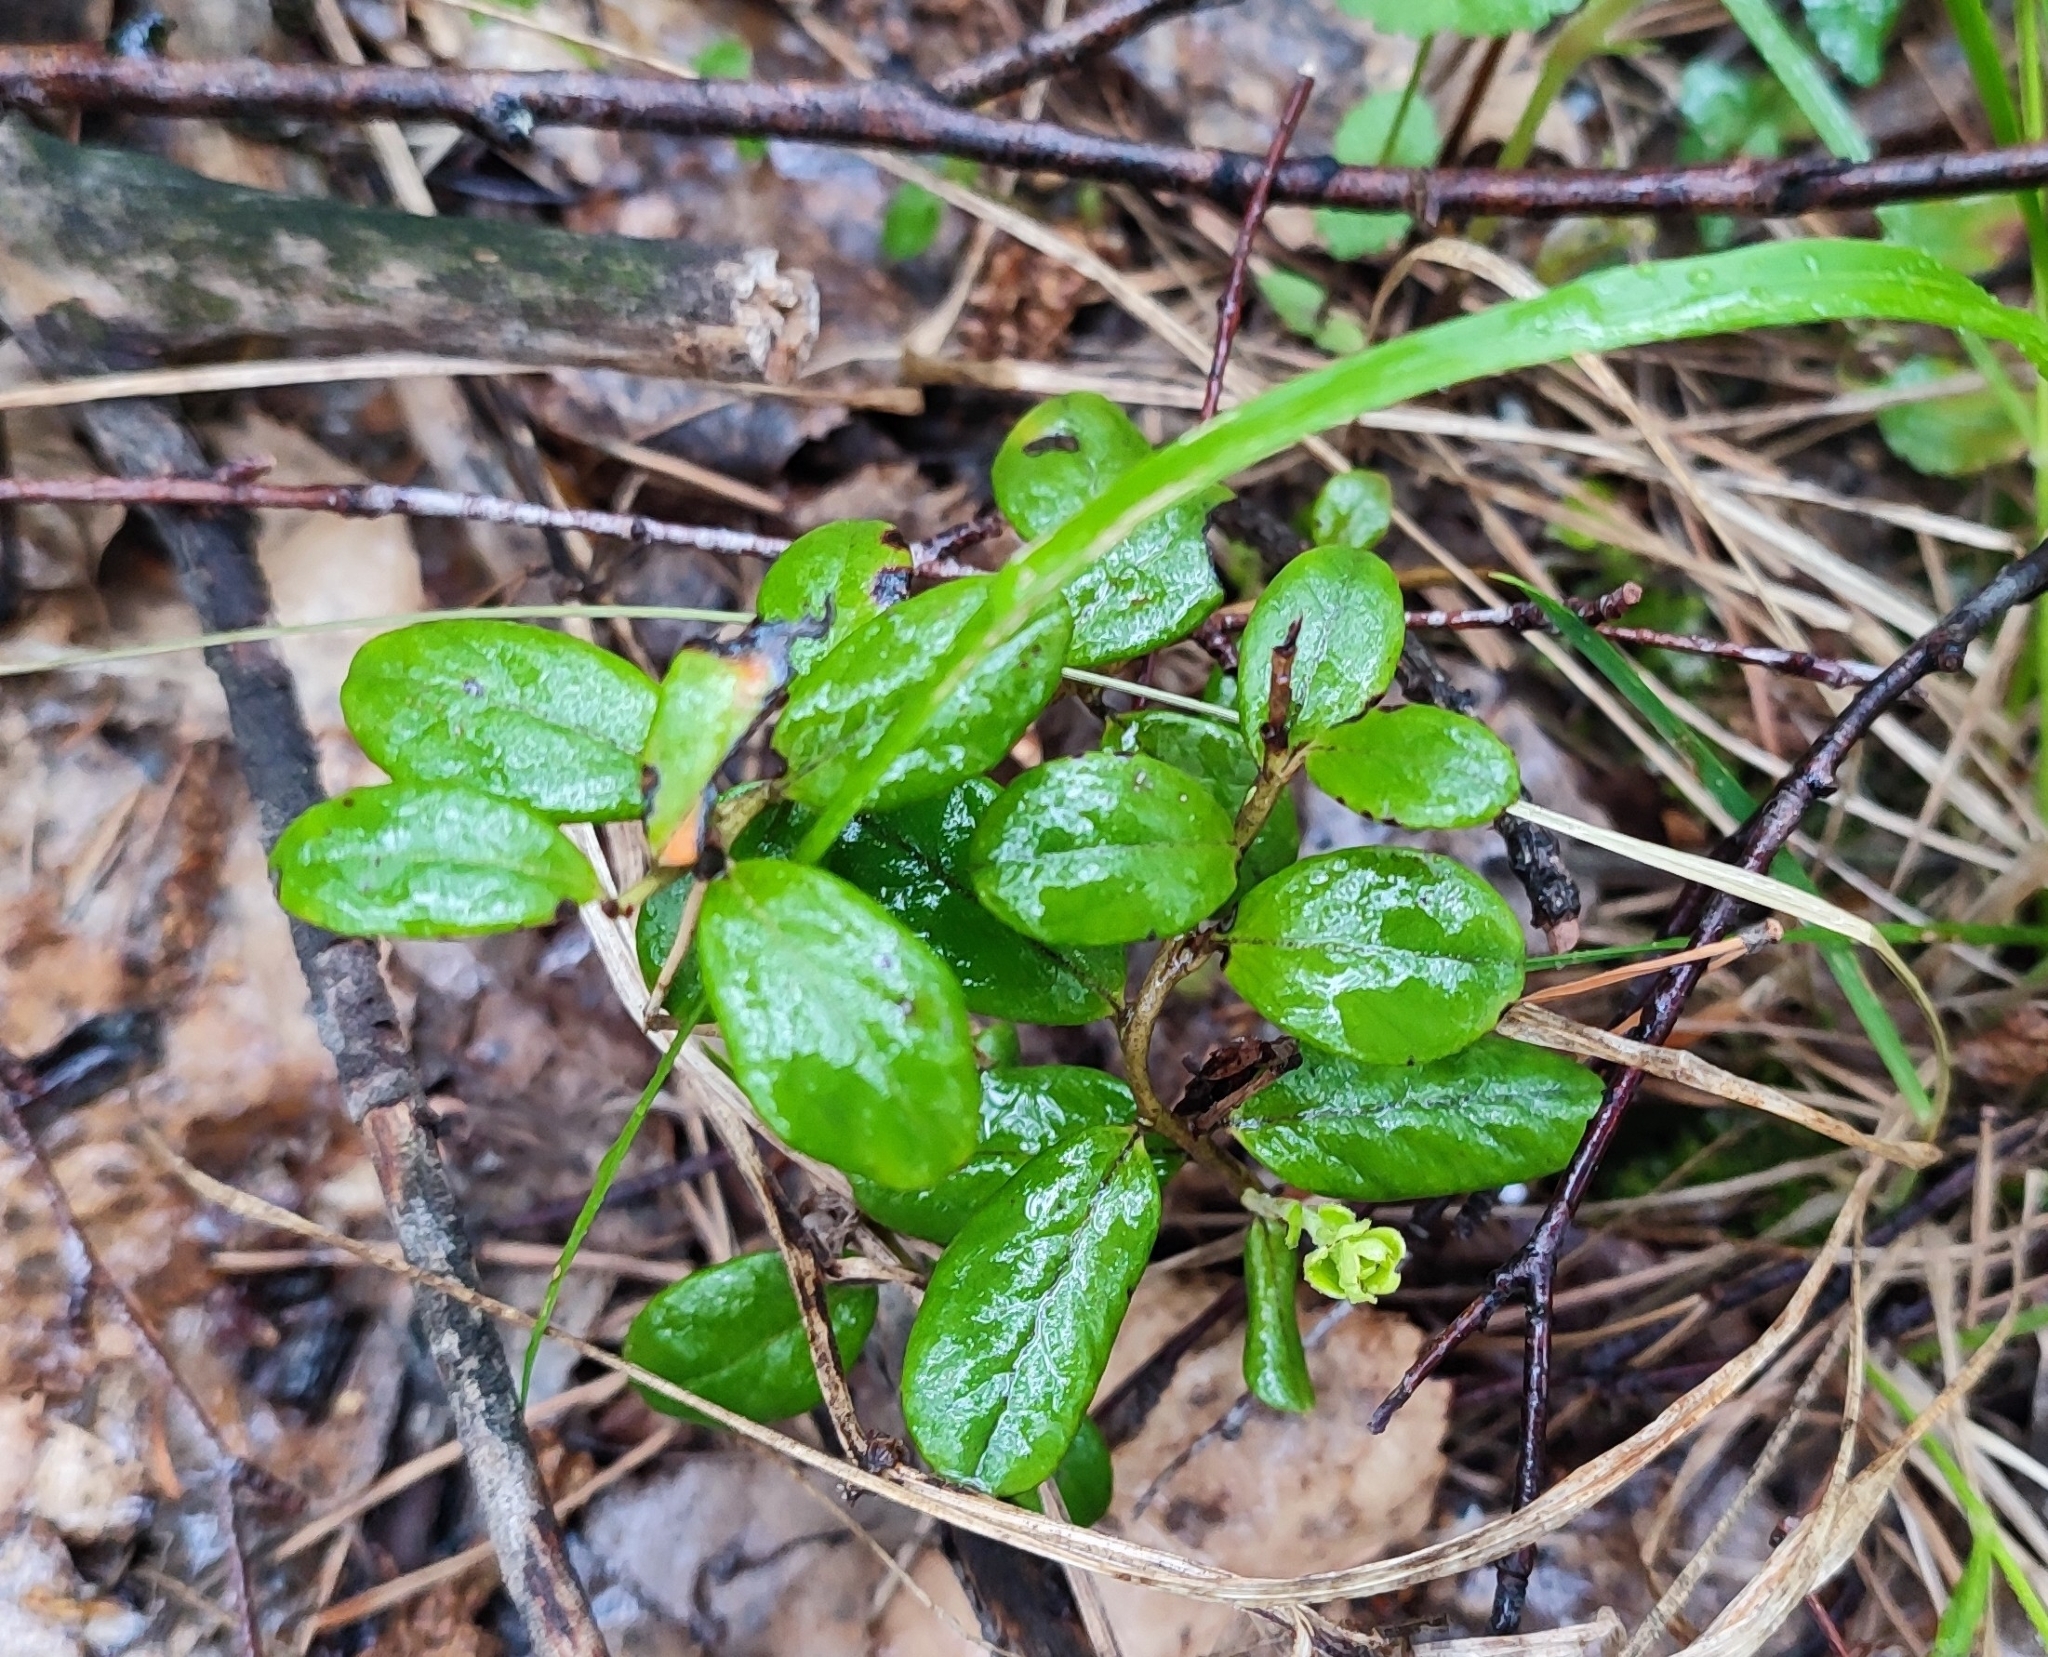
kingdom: Plantae
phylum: Tracheophyta
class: Magnoliopsida
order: Ericales
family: Ericaceae
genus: Vaccinium
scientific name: Vaccinium vitis-idaea
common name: Cowberry
